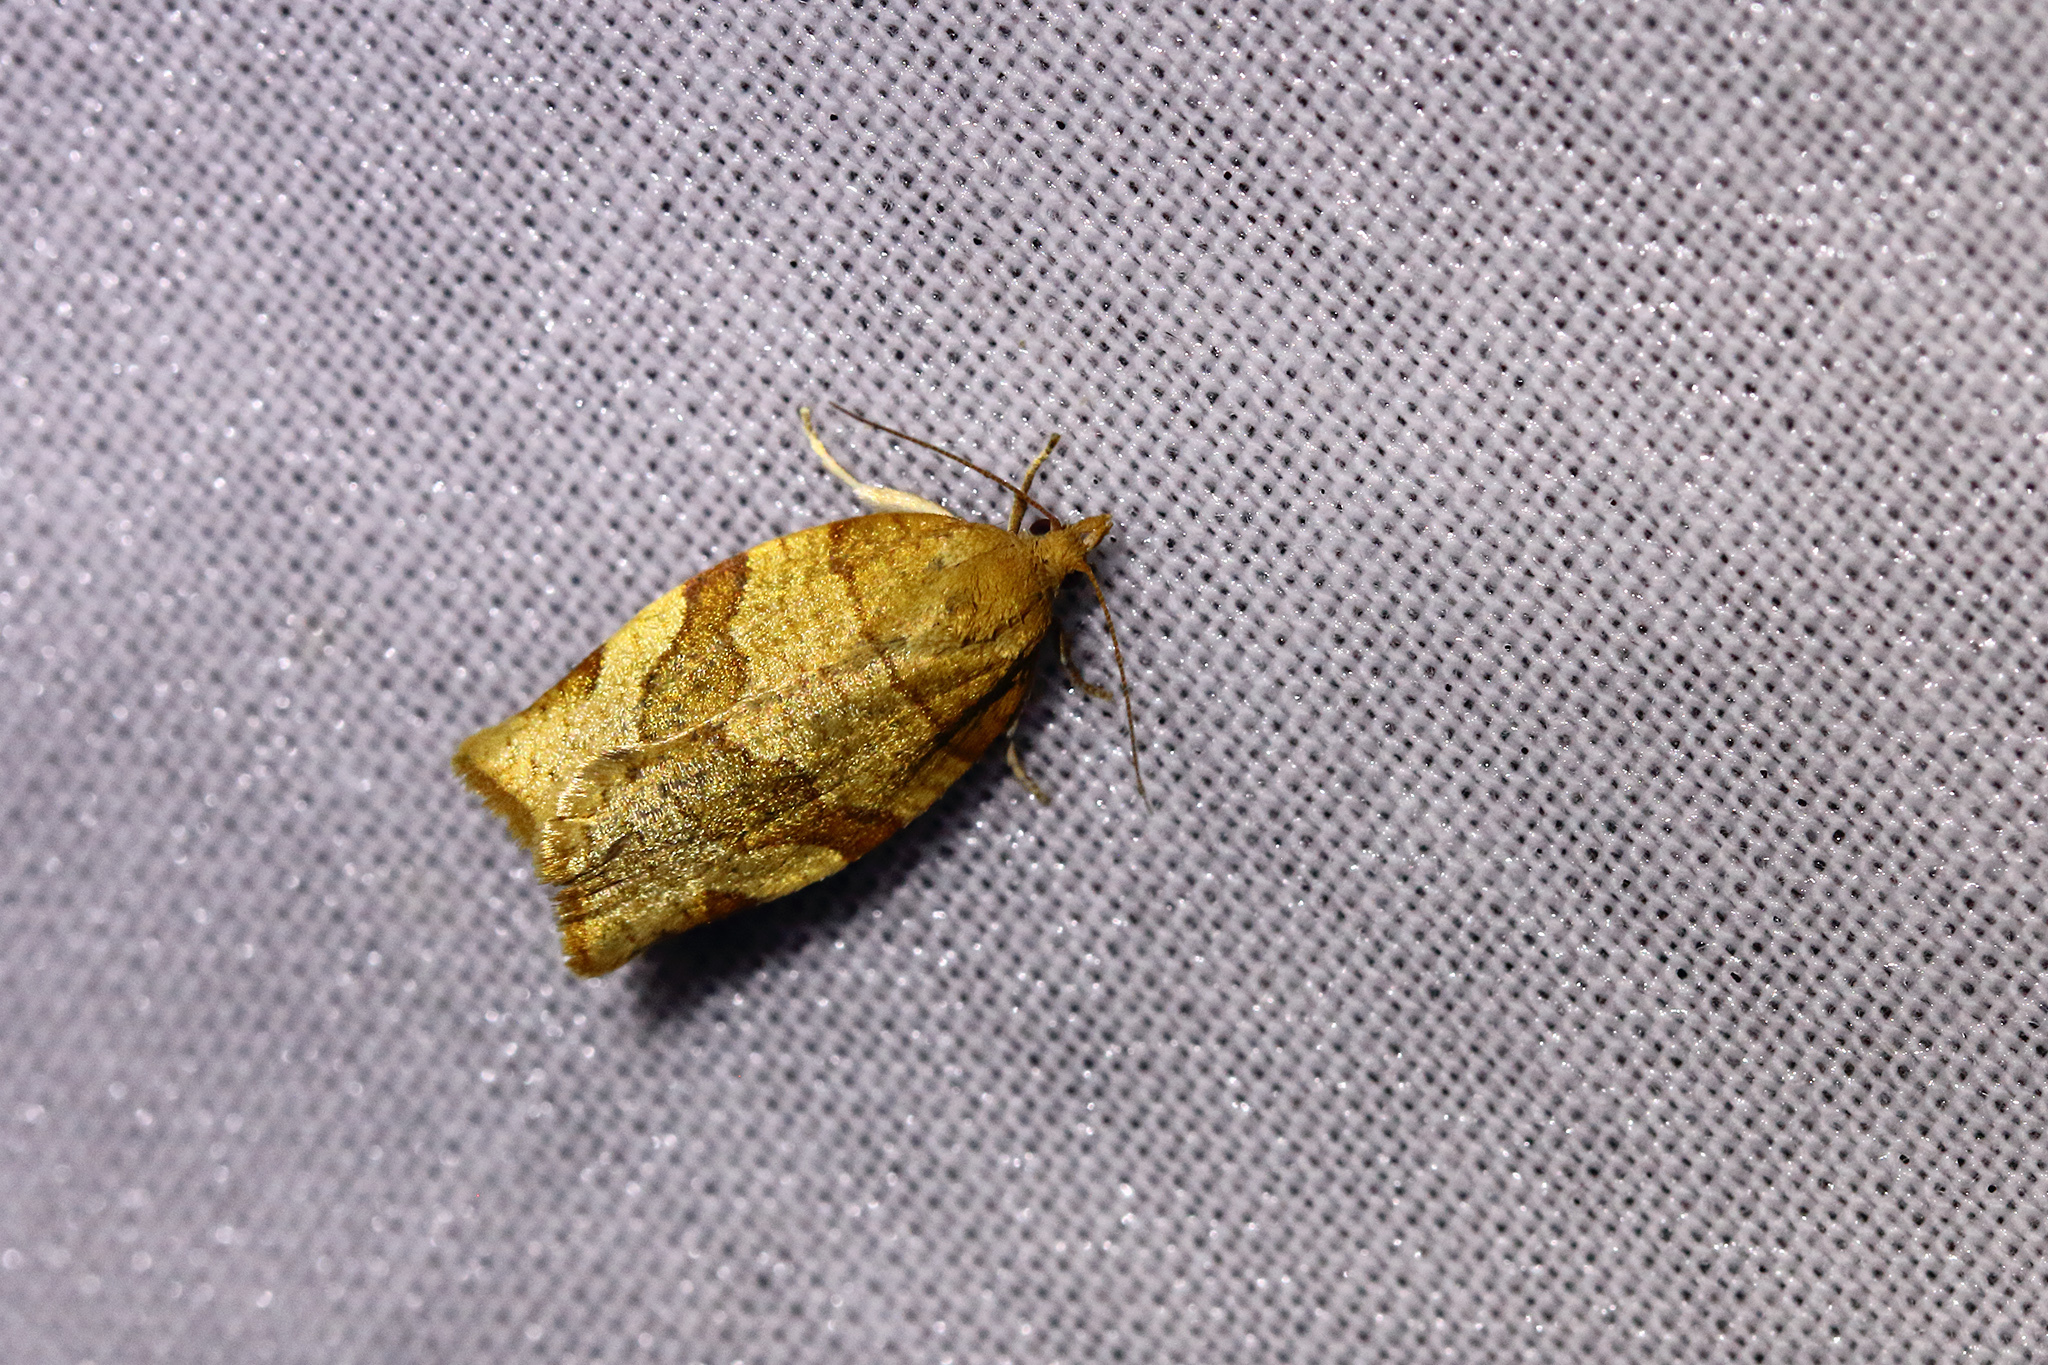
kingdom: Animalia
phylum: Arthropoda
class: Insecta
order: Lepidoptera
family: Tortricidae
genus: Pandemis
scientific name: Pandemis cerasana
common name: Barred fruit-tree tortrix
